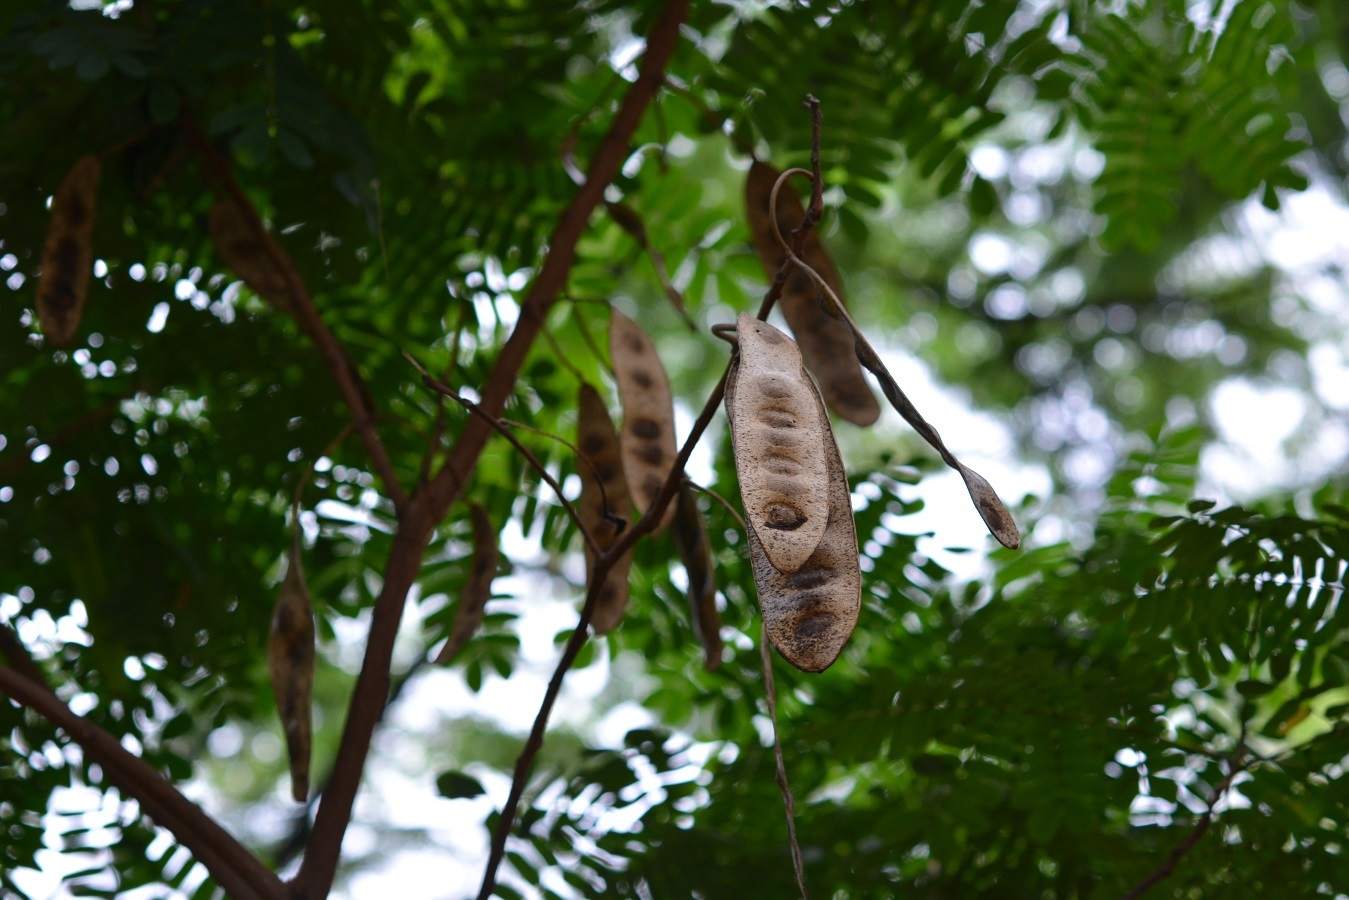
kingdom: Plantae
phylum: Tracheophyta
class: Magnoliopsida
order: Fabales
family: Fabaceae
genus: Albizia
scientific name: Albizia tomentosa
